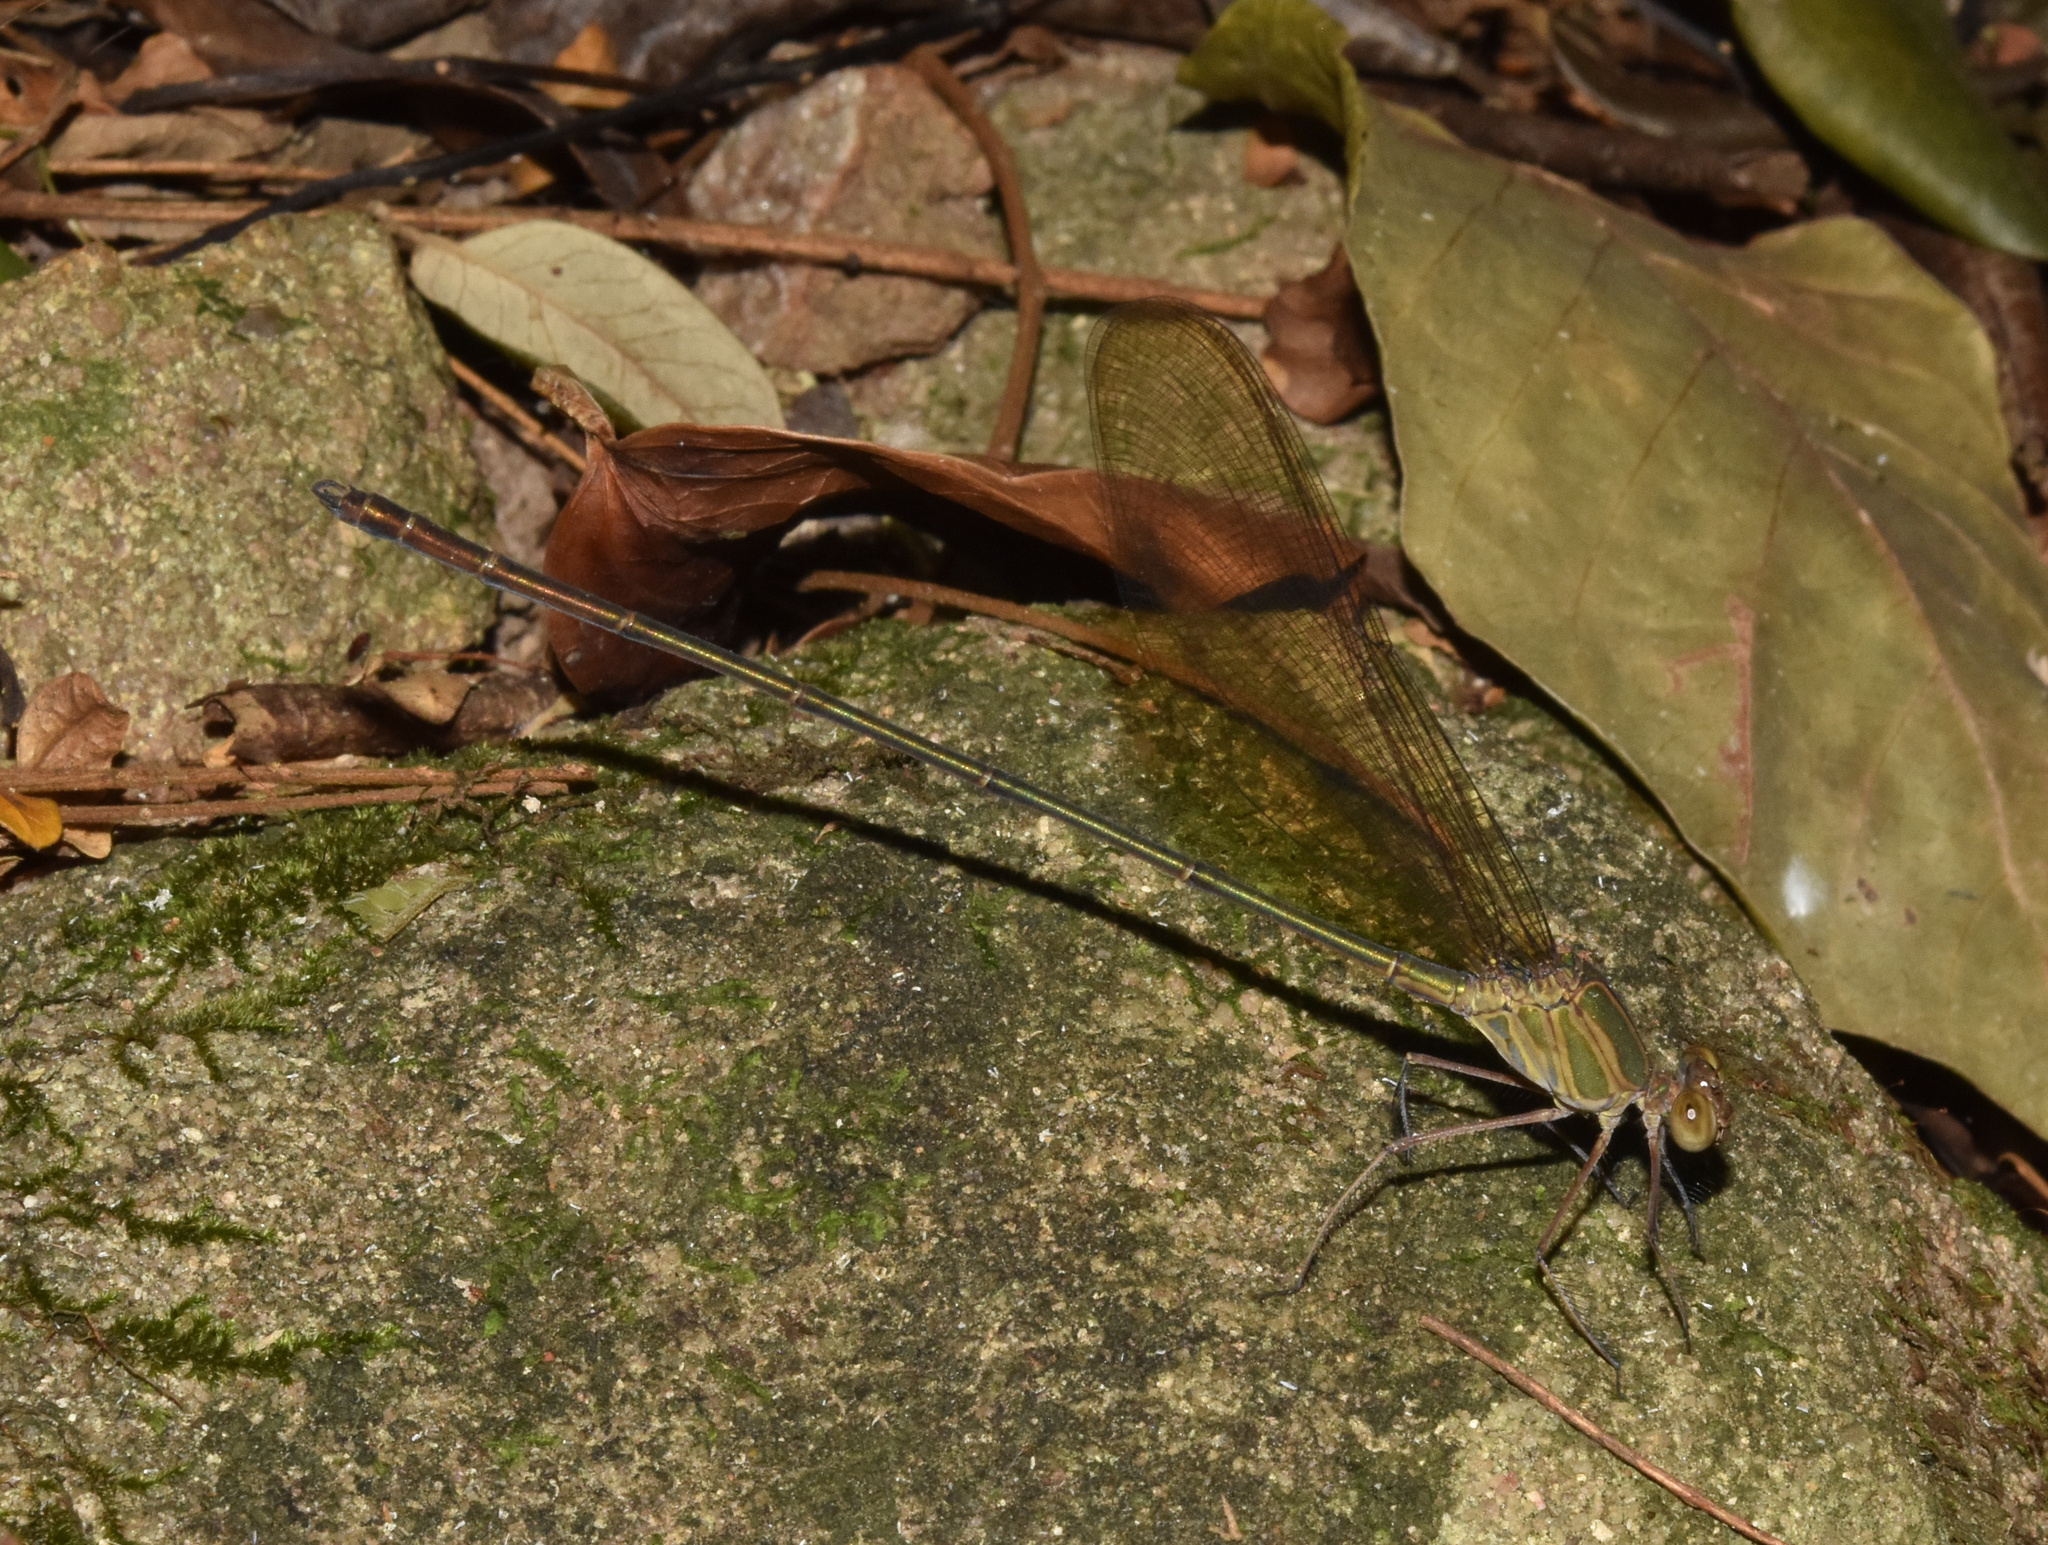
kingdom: Animalia
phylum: Arthropoda
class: Insecta
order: Odonata
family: Calopterygidae
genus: Phaon
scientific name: Phaon iridipennis
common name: Glistening demoiselle
